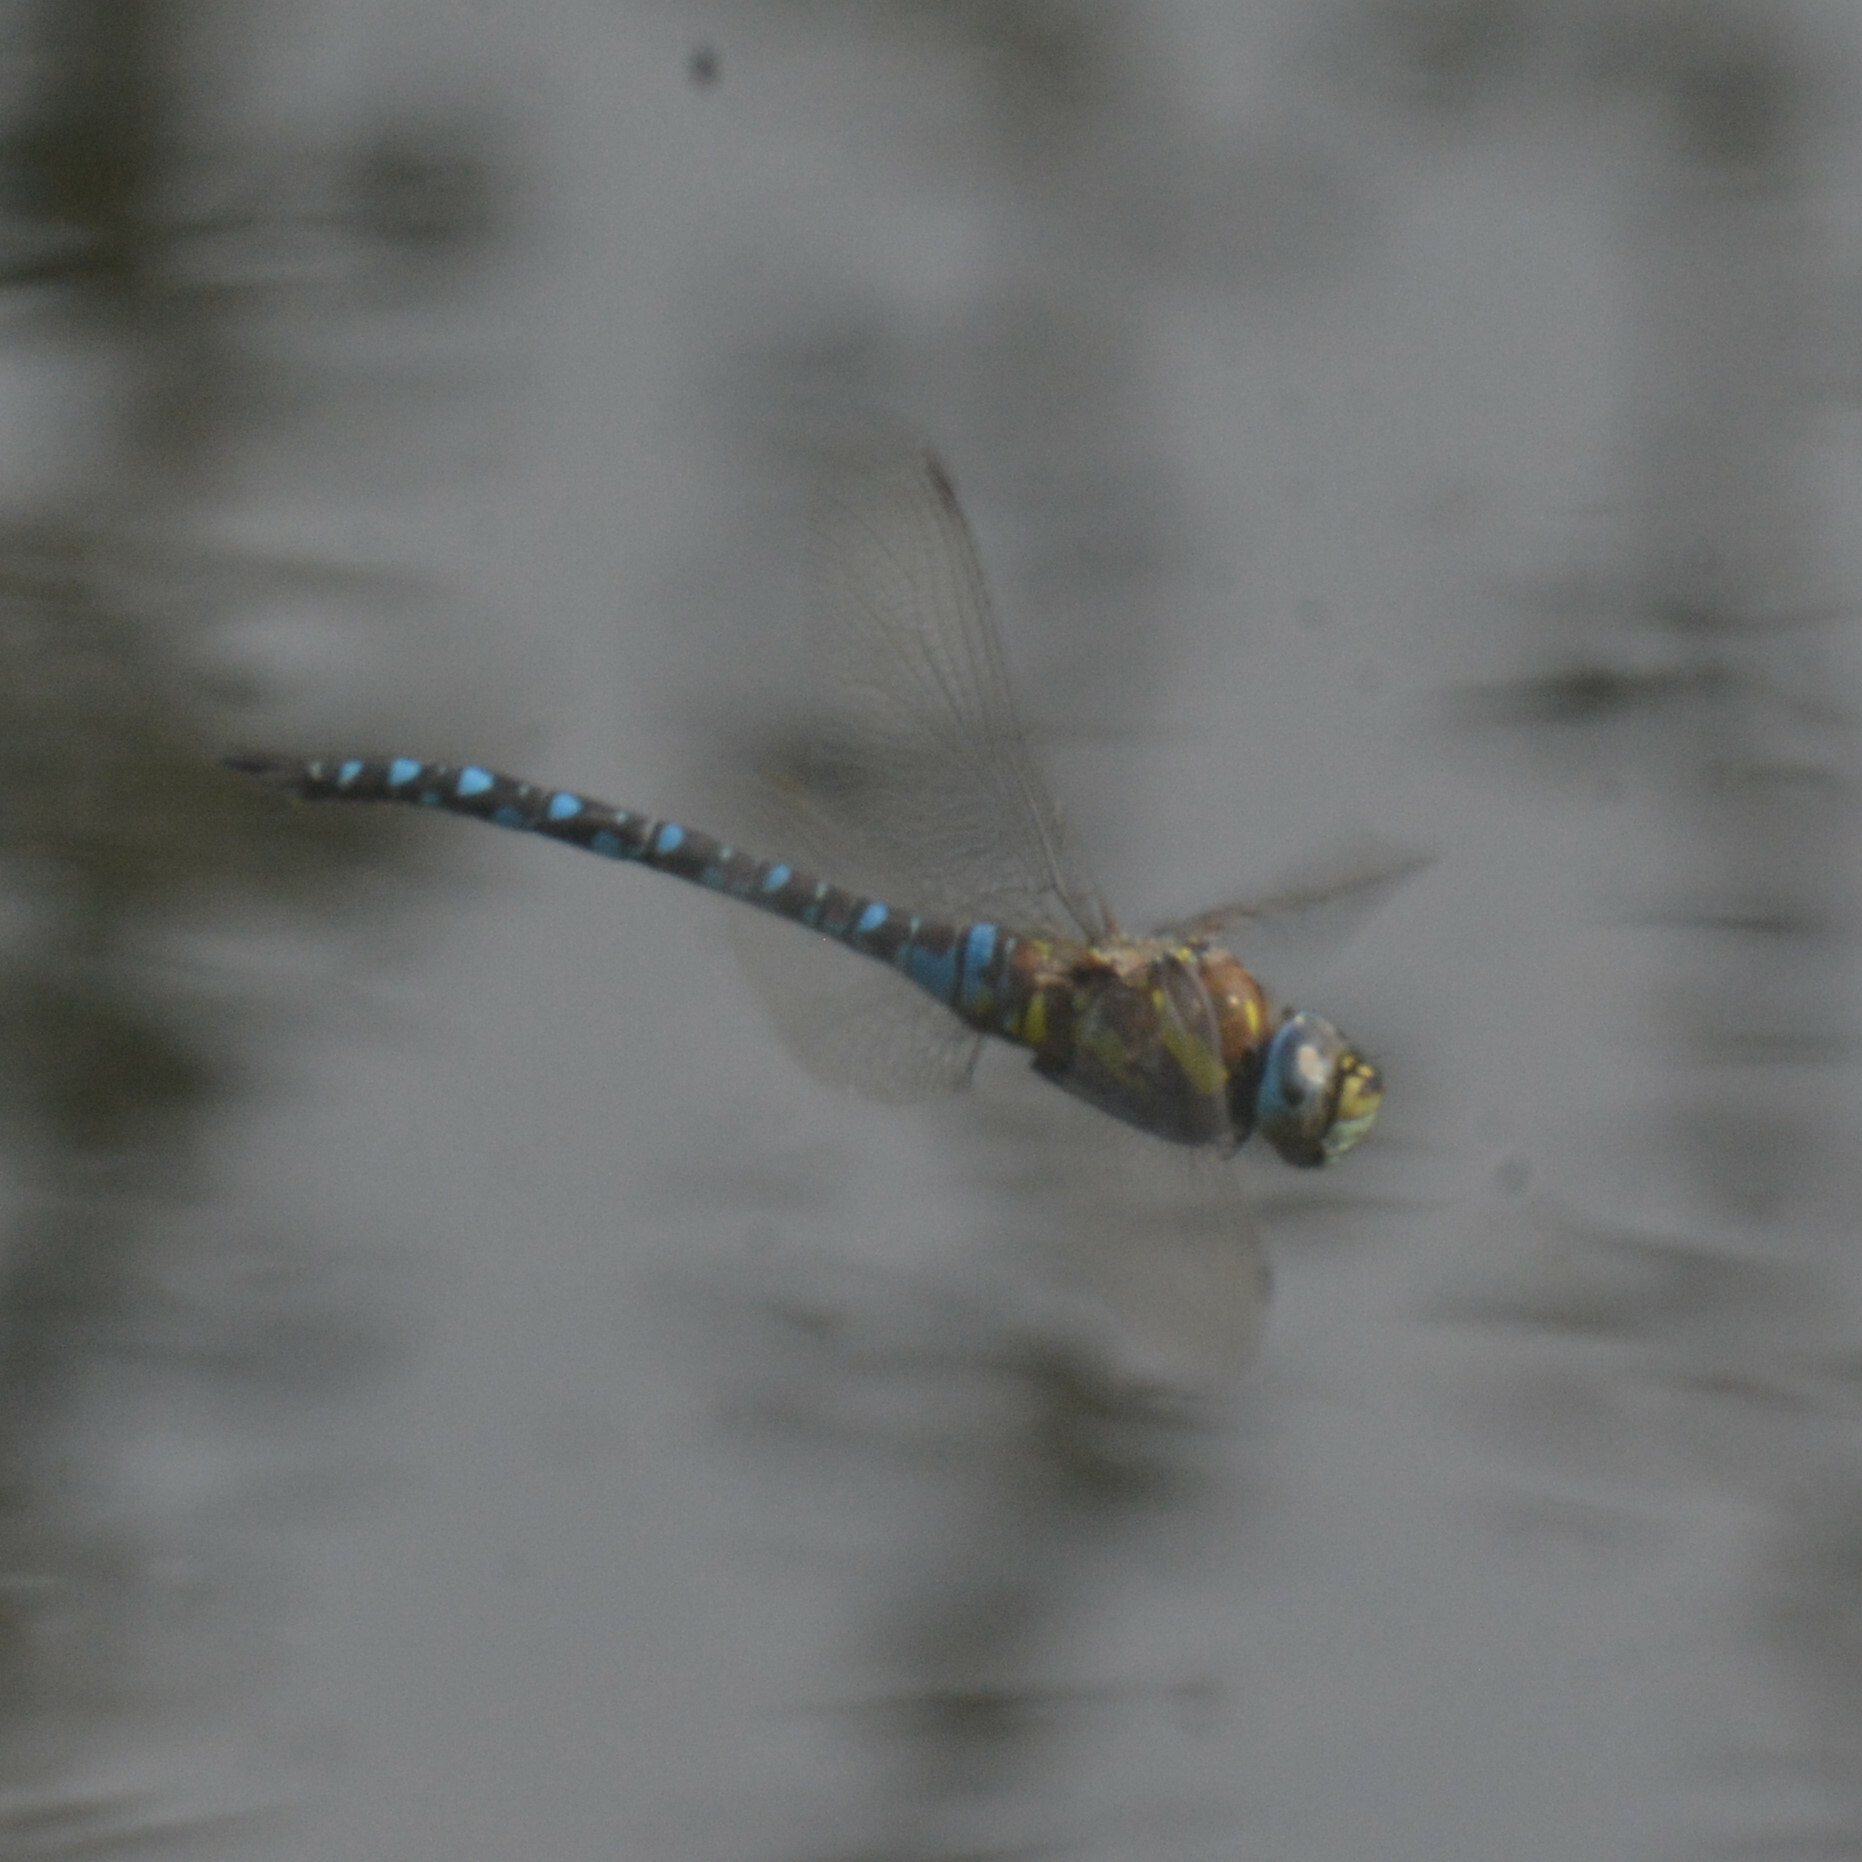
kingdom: Animalia
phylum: Arthropoda
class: Insecta
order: Odonata
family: Aeshnidae
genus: Aeshna
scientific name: Aeshna mixta
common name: Migrant hawker
